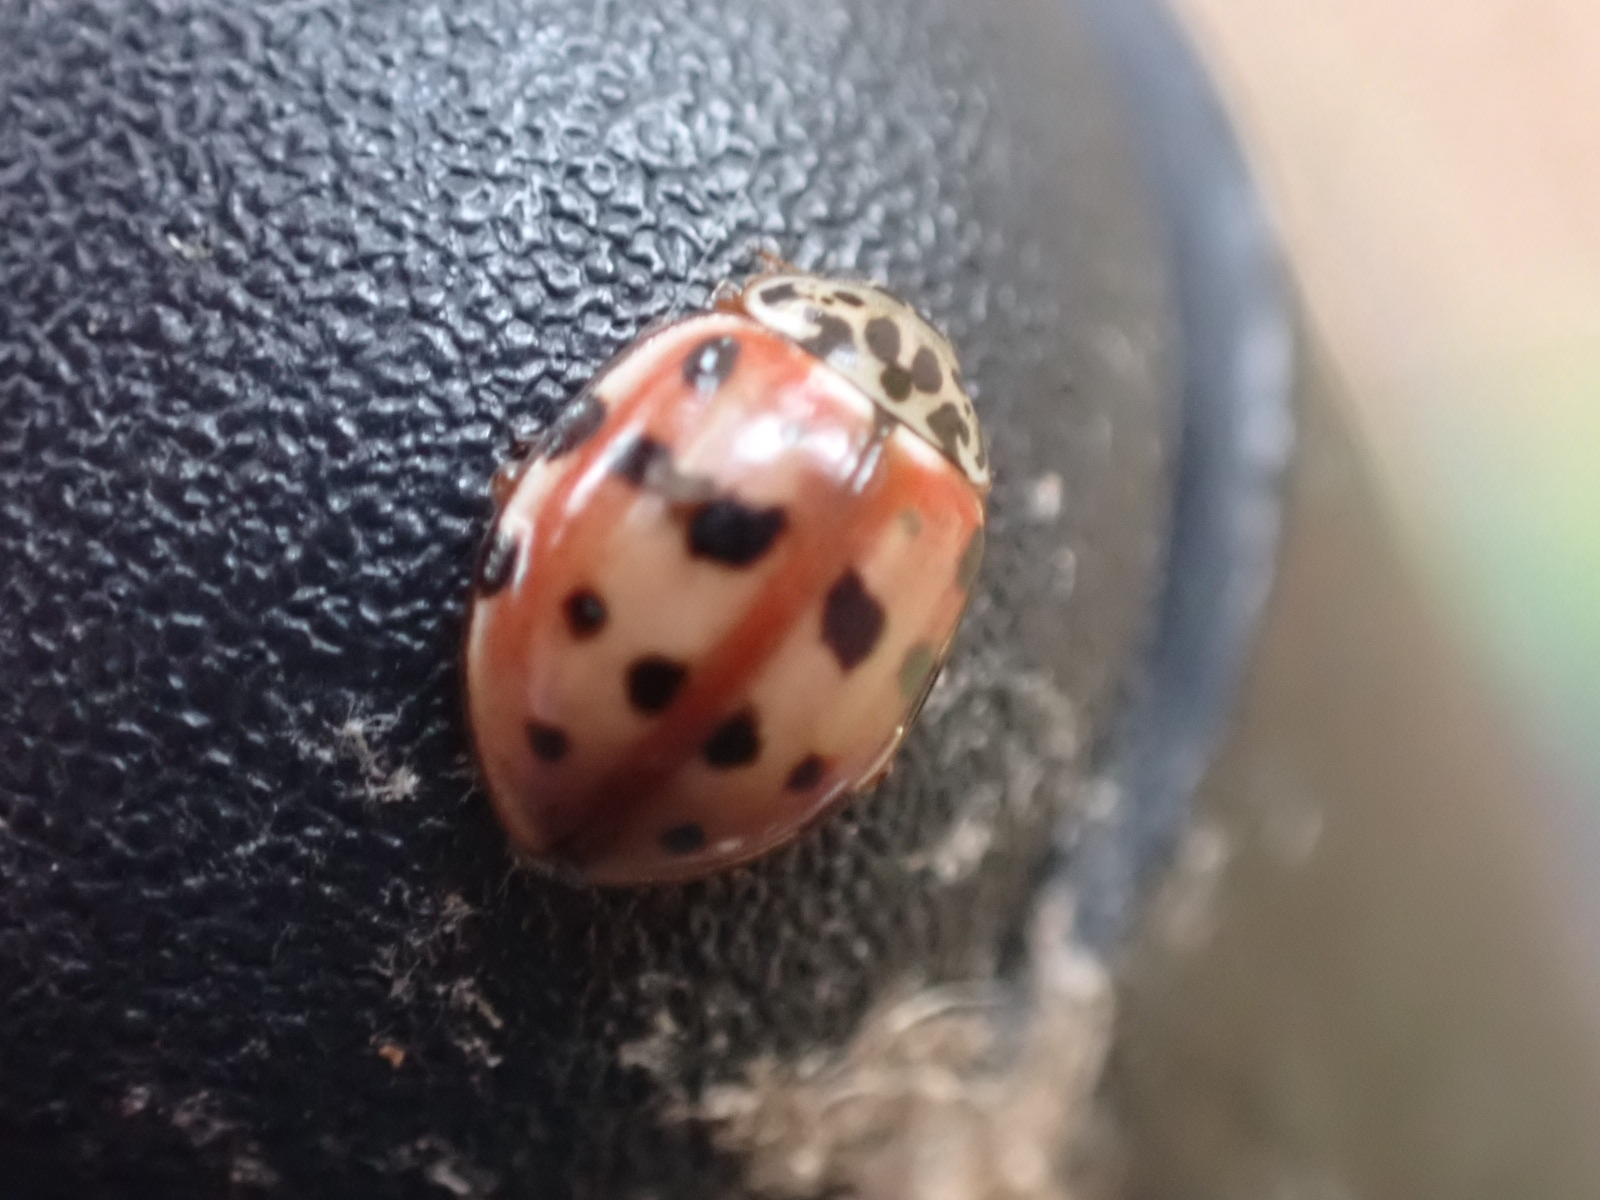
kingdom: Animalia
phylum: Arthropoda
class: Insecta
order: Coleoptera
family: Coccinellidae
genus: Harmonia
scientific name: Harmonia quadripunctata
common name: Cream-streaked ladybird
